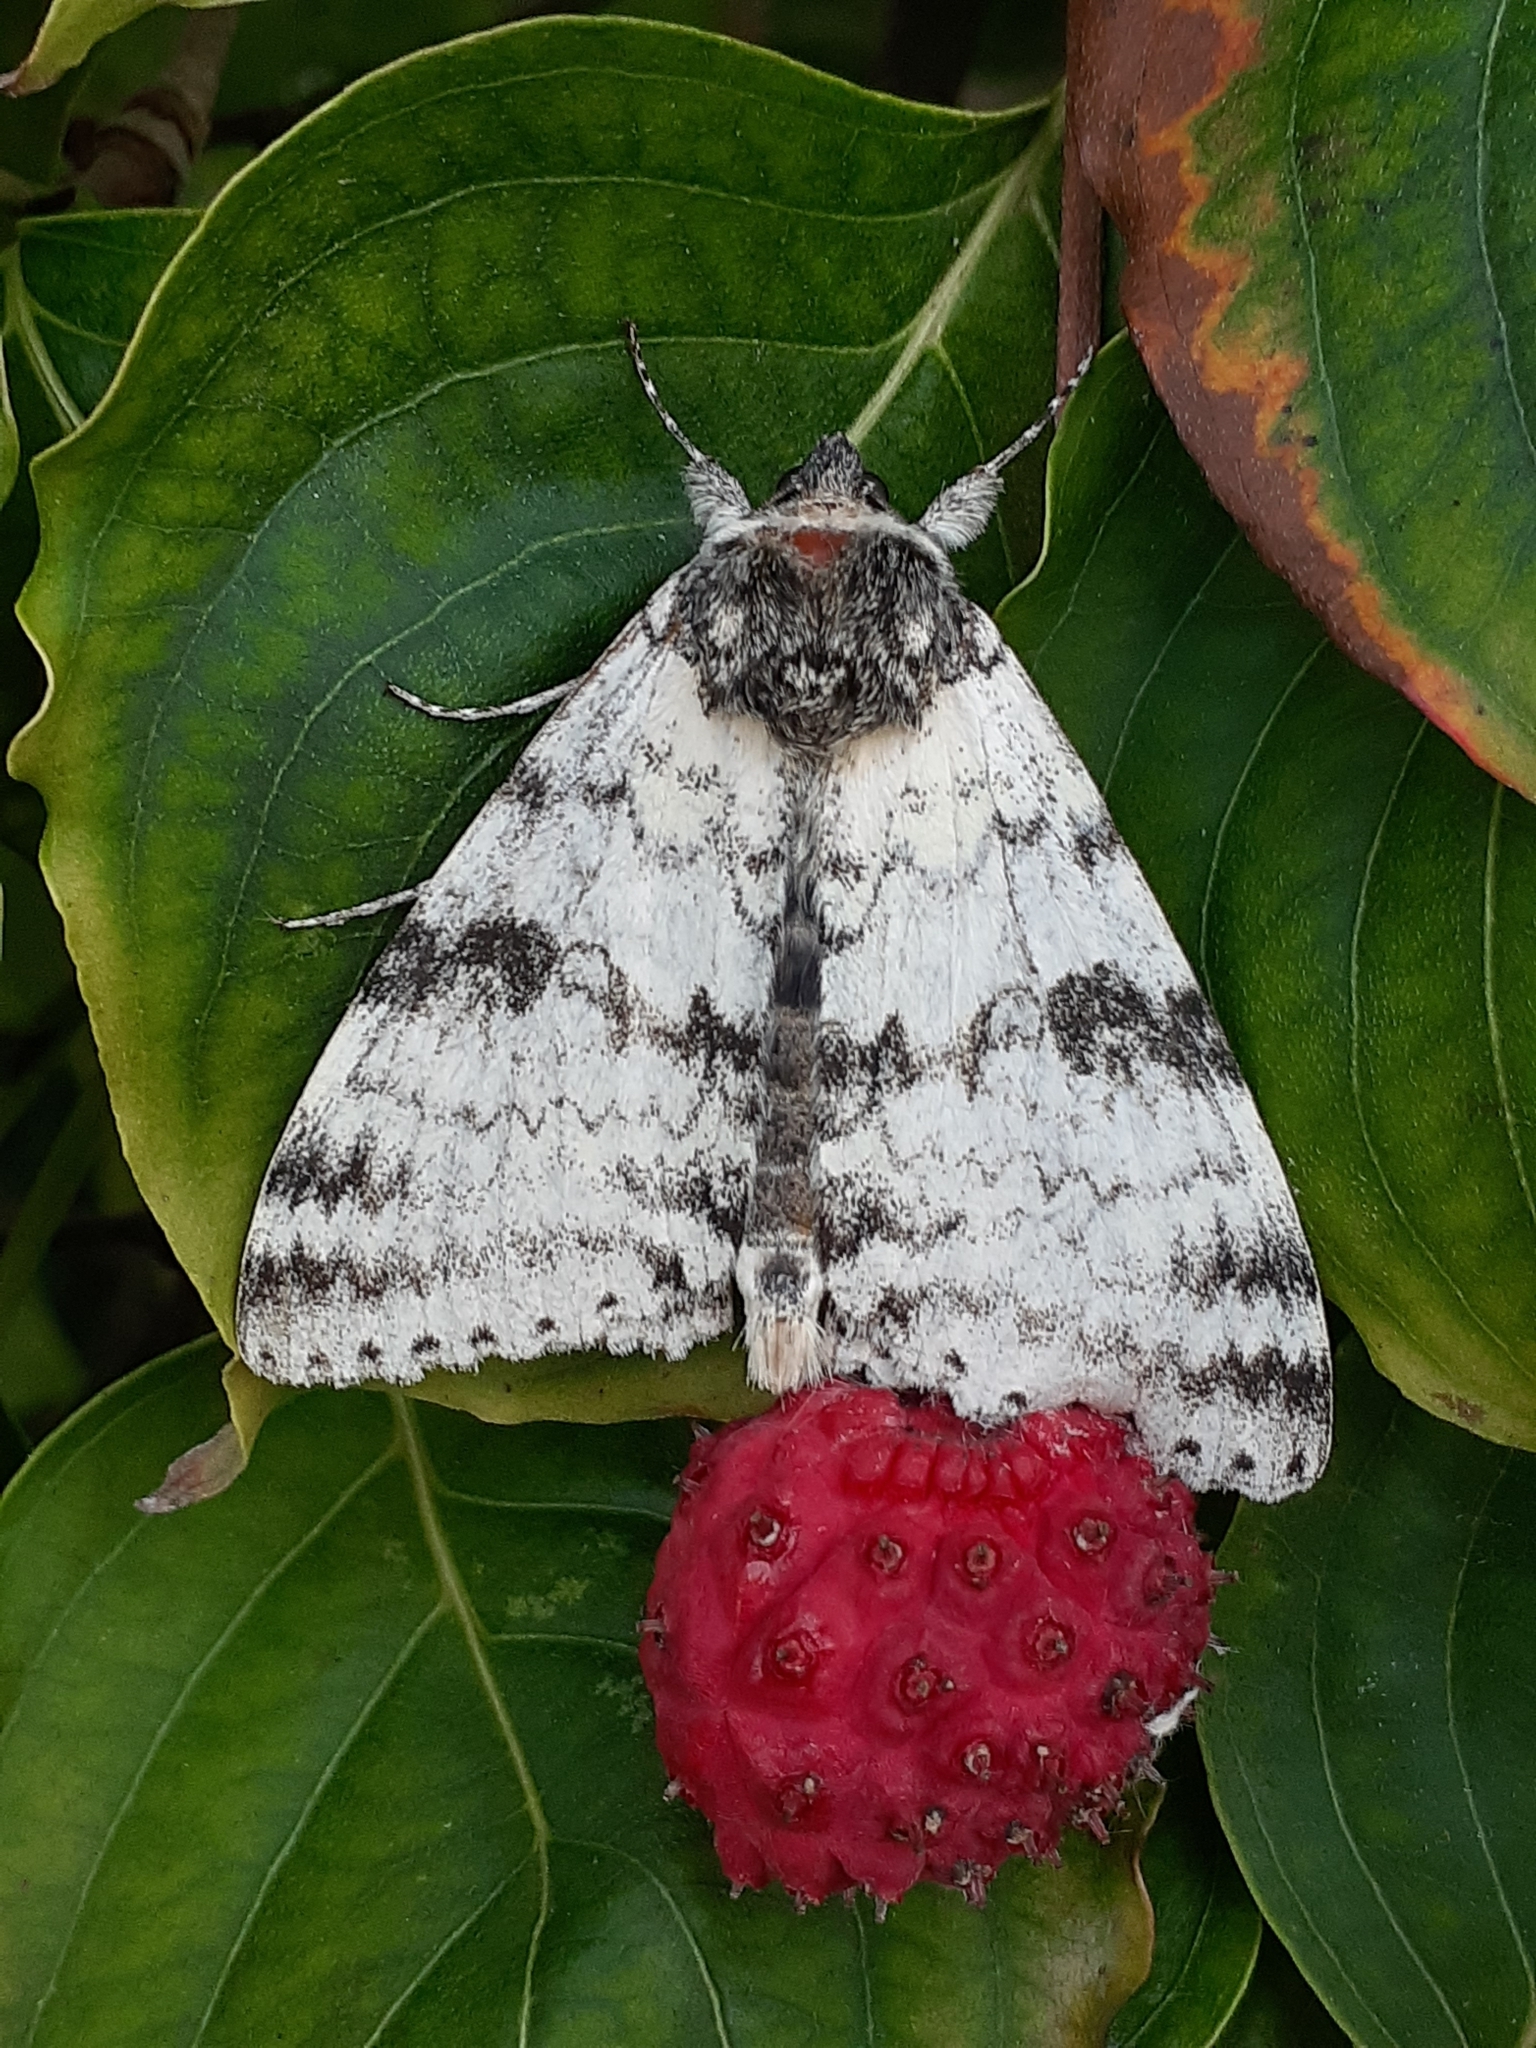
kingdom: Animalia
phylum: Arthropoda
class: Insecta
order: Lepidoptera
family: Erebidae
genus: Catocala
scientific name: Catocala relicta
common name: White underwing
